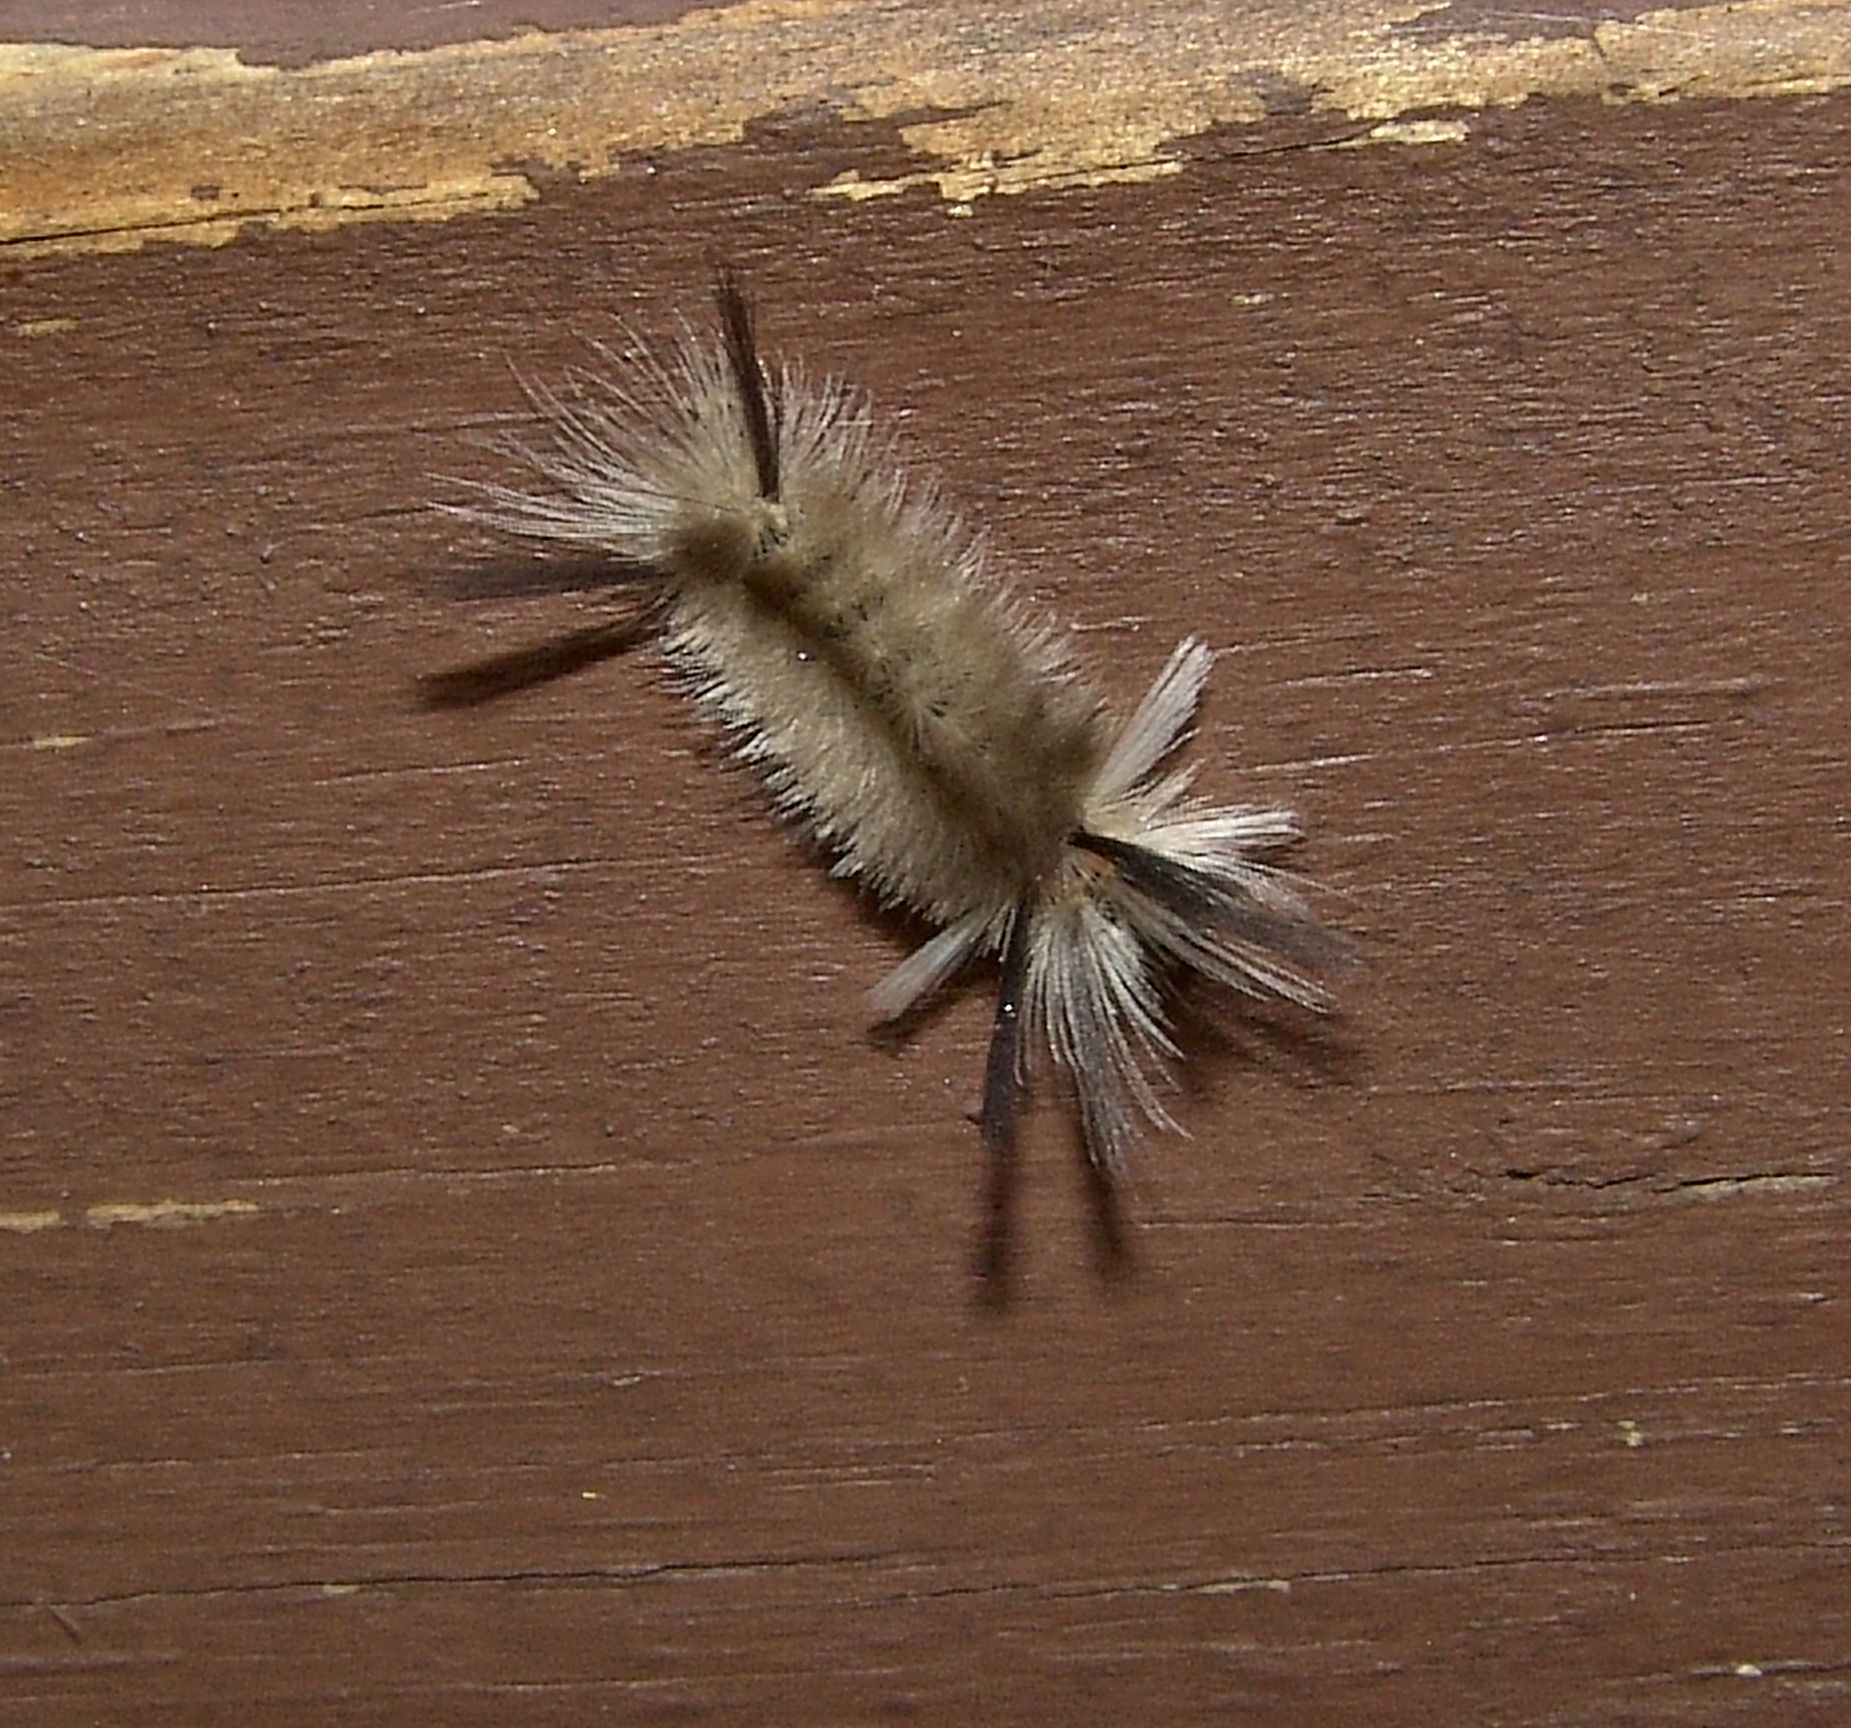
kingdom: Animalia
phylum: Arthropoda
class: Insecta
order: Lepidoptera
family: Erebidae
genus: Halysidota
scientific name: Halysidota tessellaris
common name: Banded tussock moth
